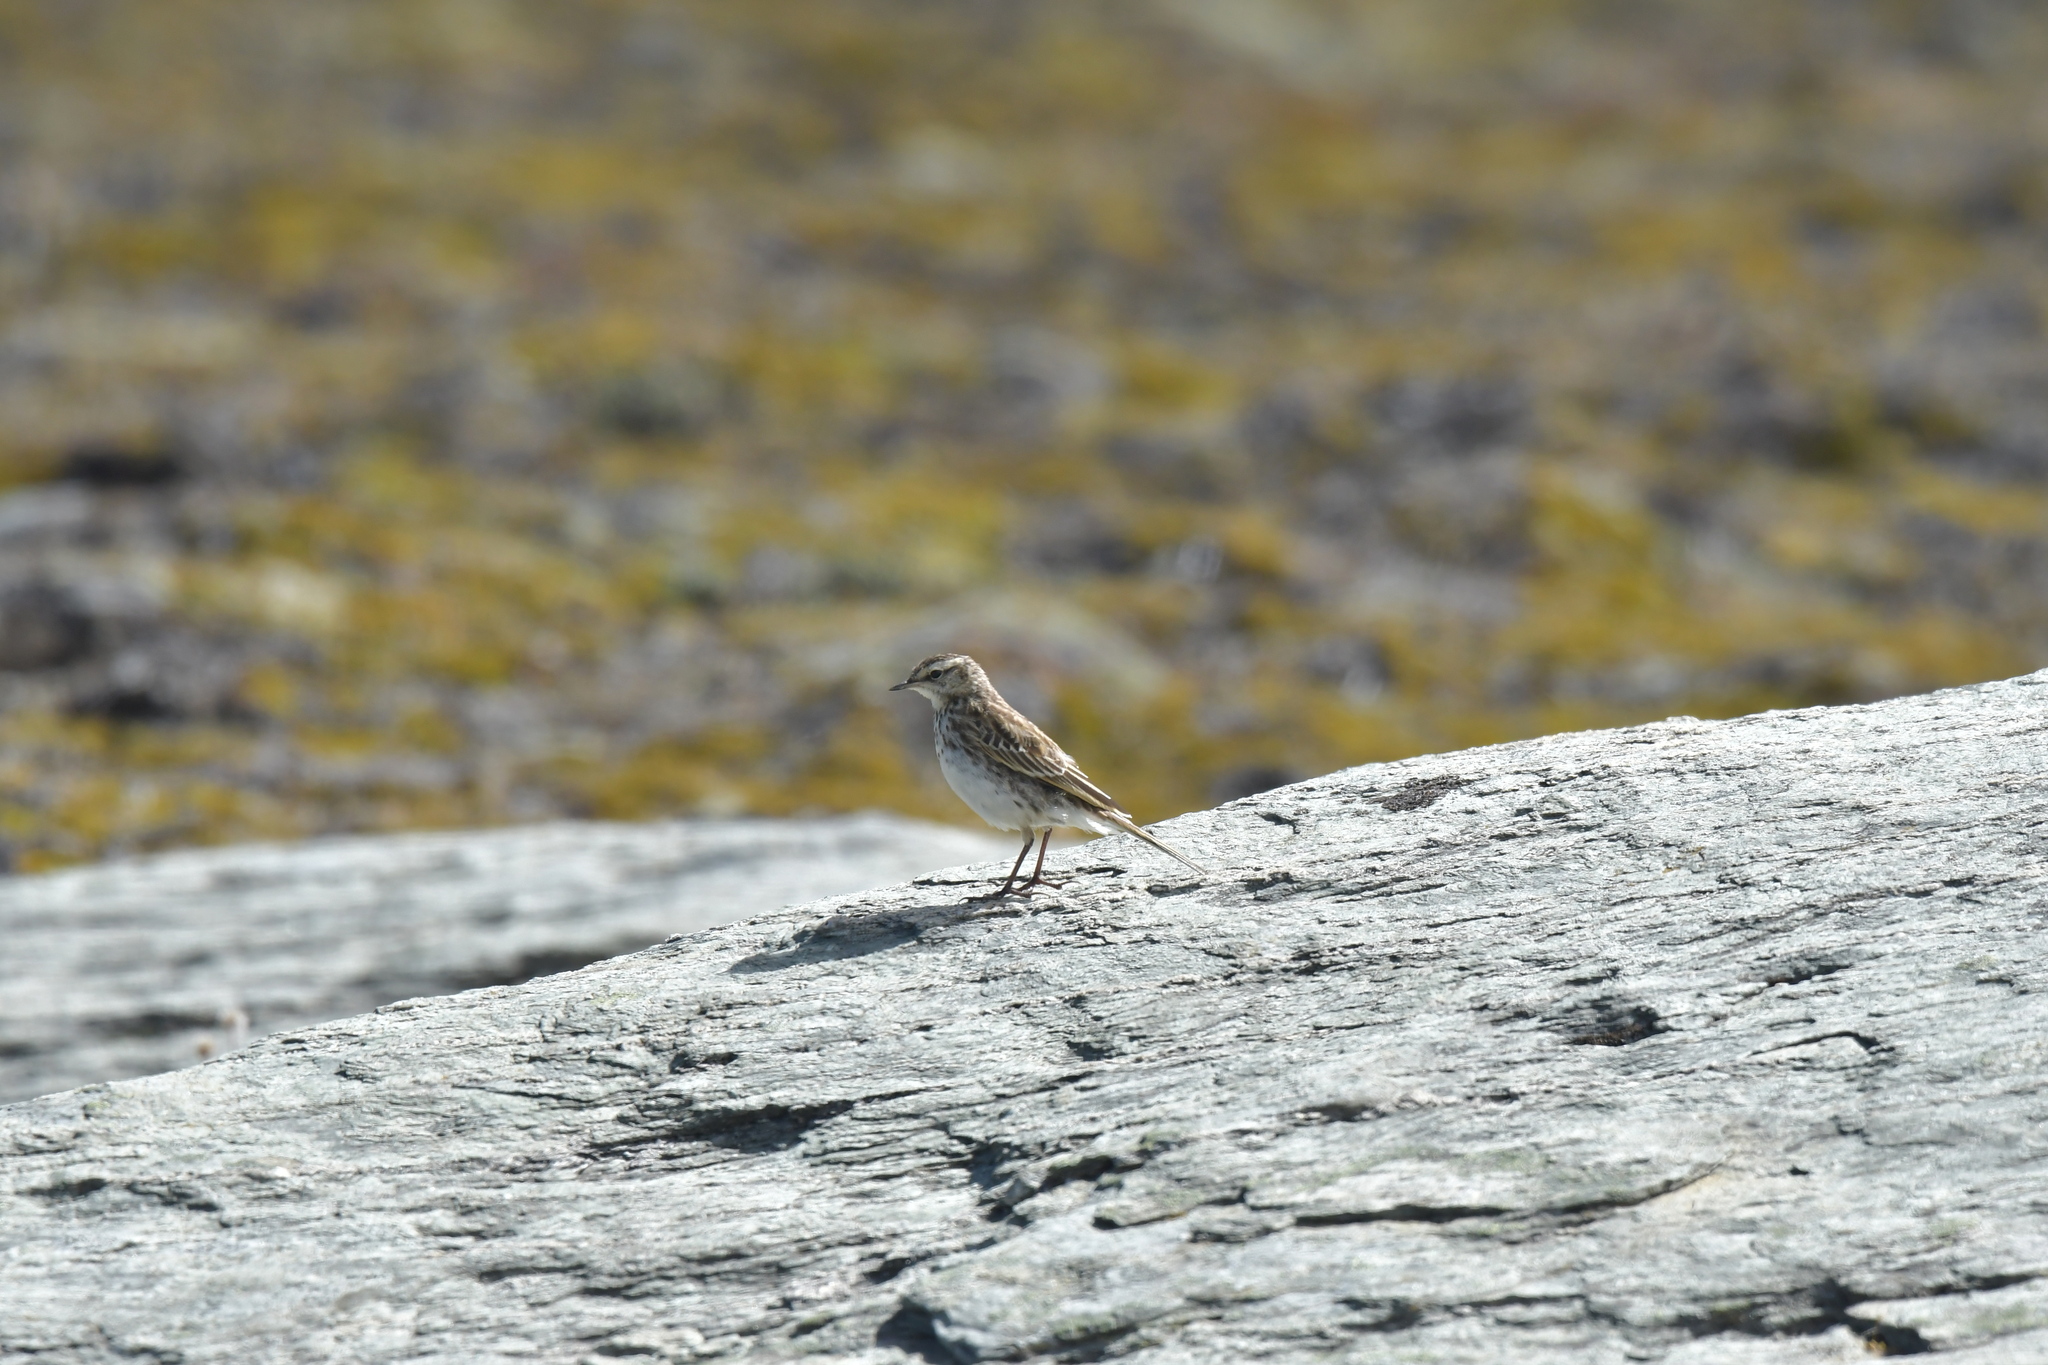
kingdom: Animalia
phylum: Chordata
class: Aves
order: Passeriformes
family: Motacillidae
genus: Anthus
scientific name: Anthus novaeseelandiae
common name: New zealand pipit
